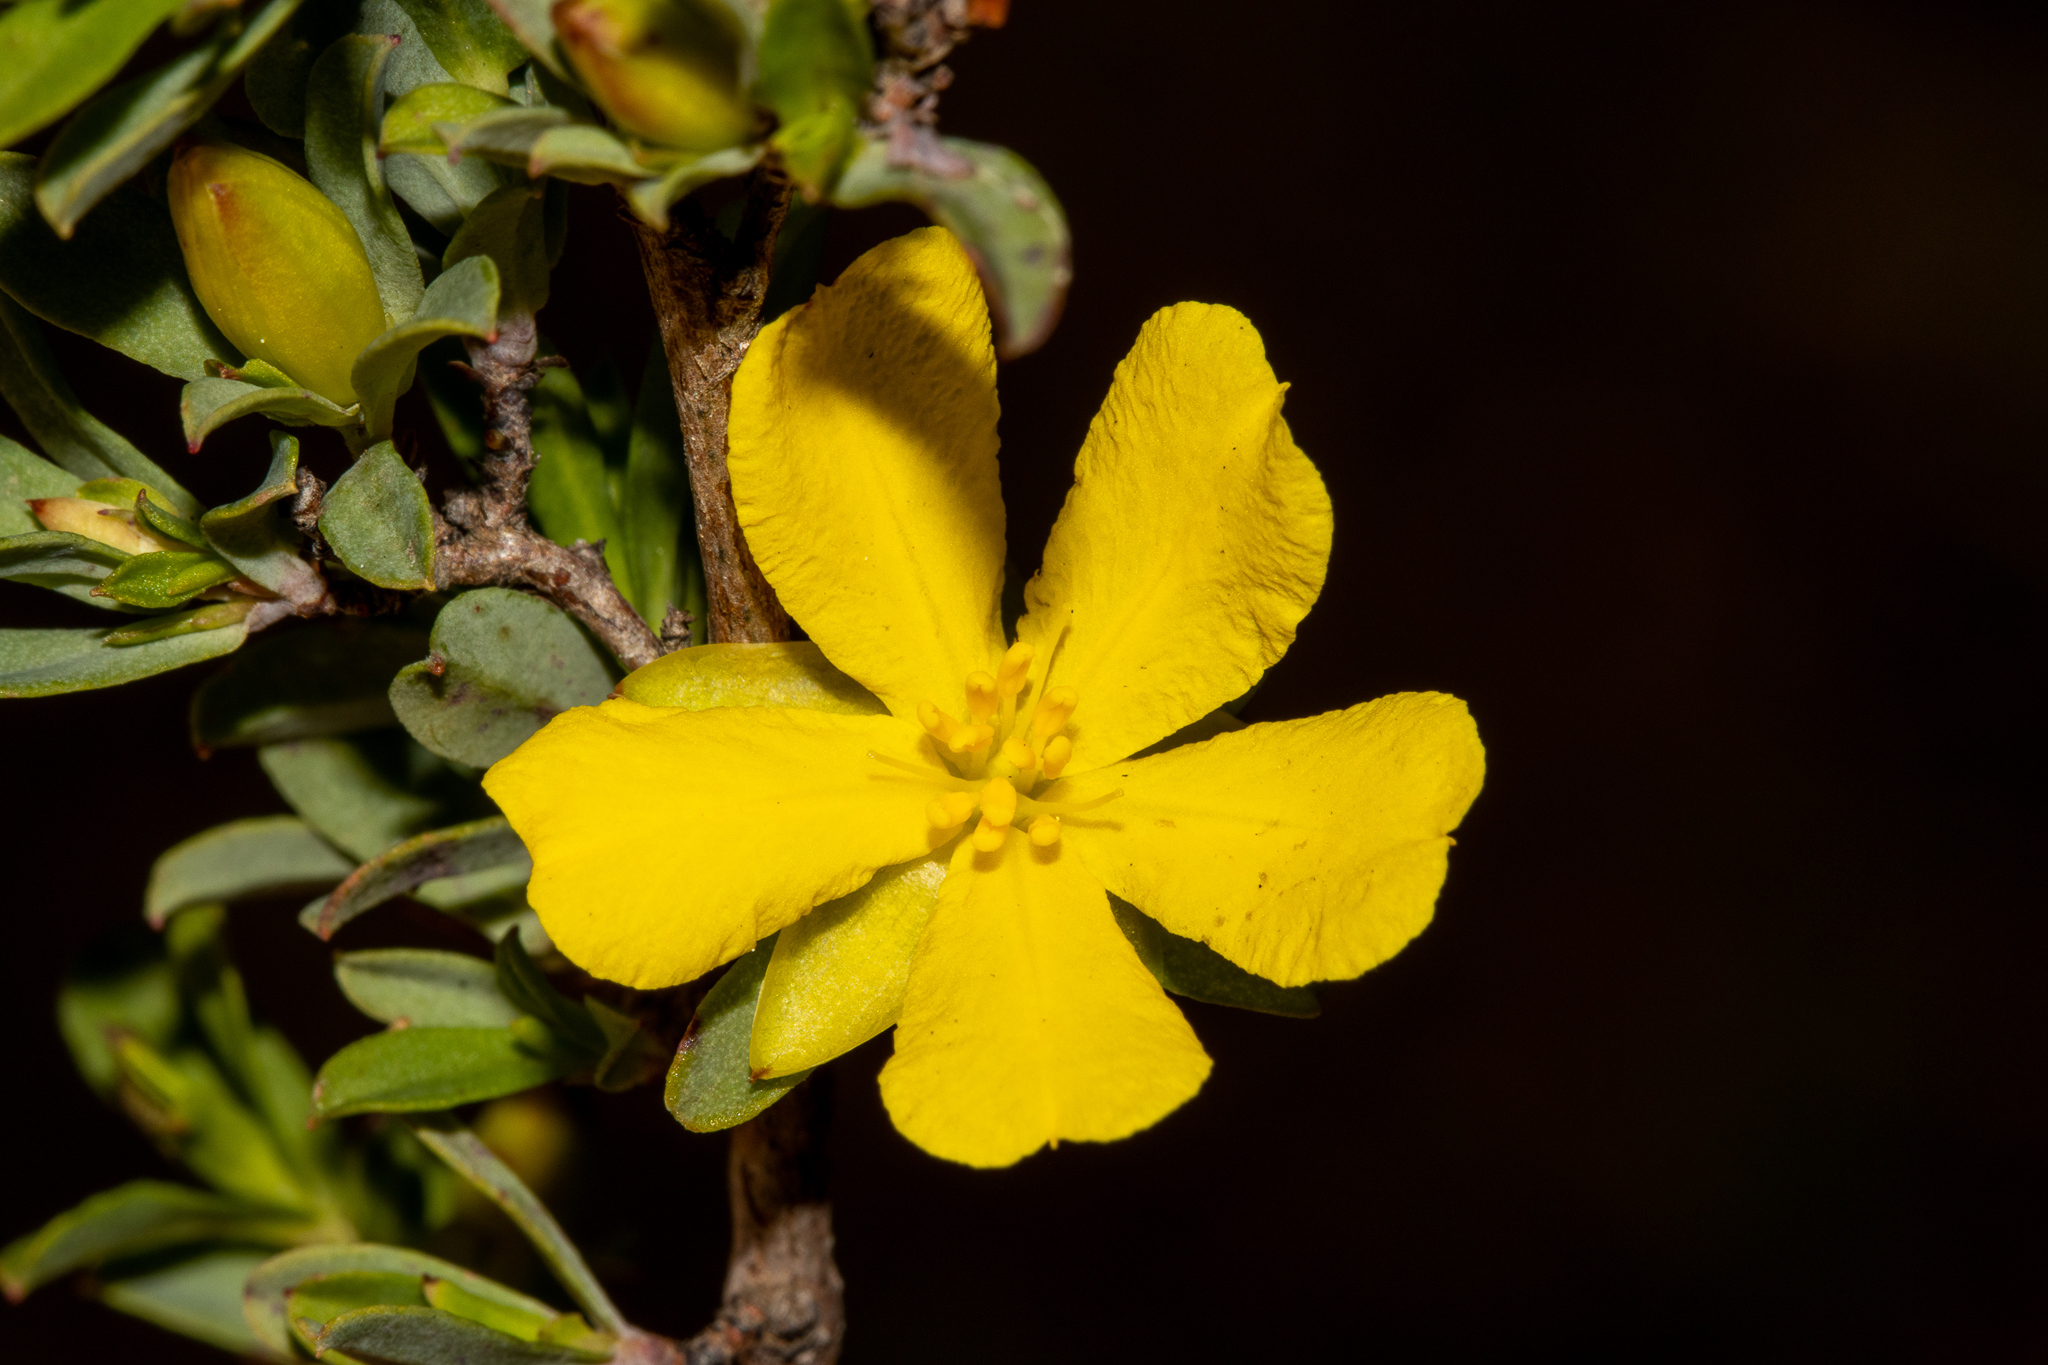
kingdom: Plantae
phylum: Tracheophyta
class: Magnoliopsida
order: Dilleniales
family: Dilleniaceae
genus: Hibbertia
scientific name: Hibbertia glomerata
